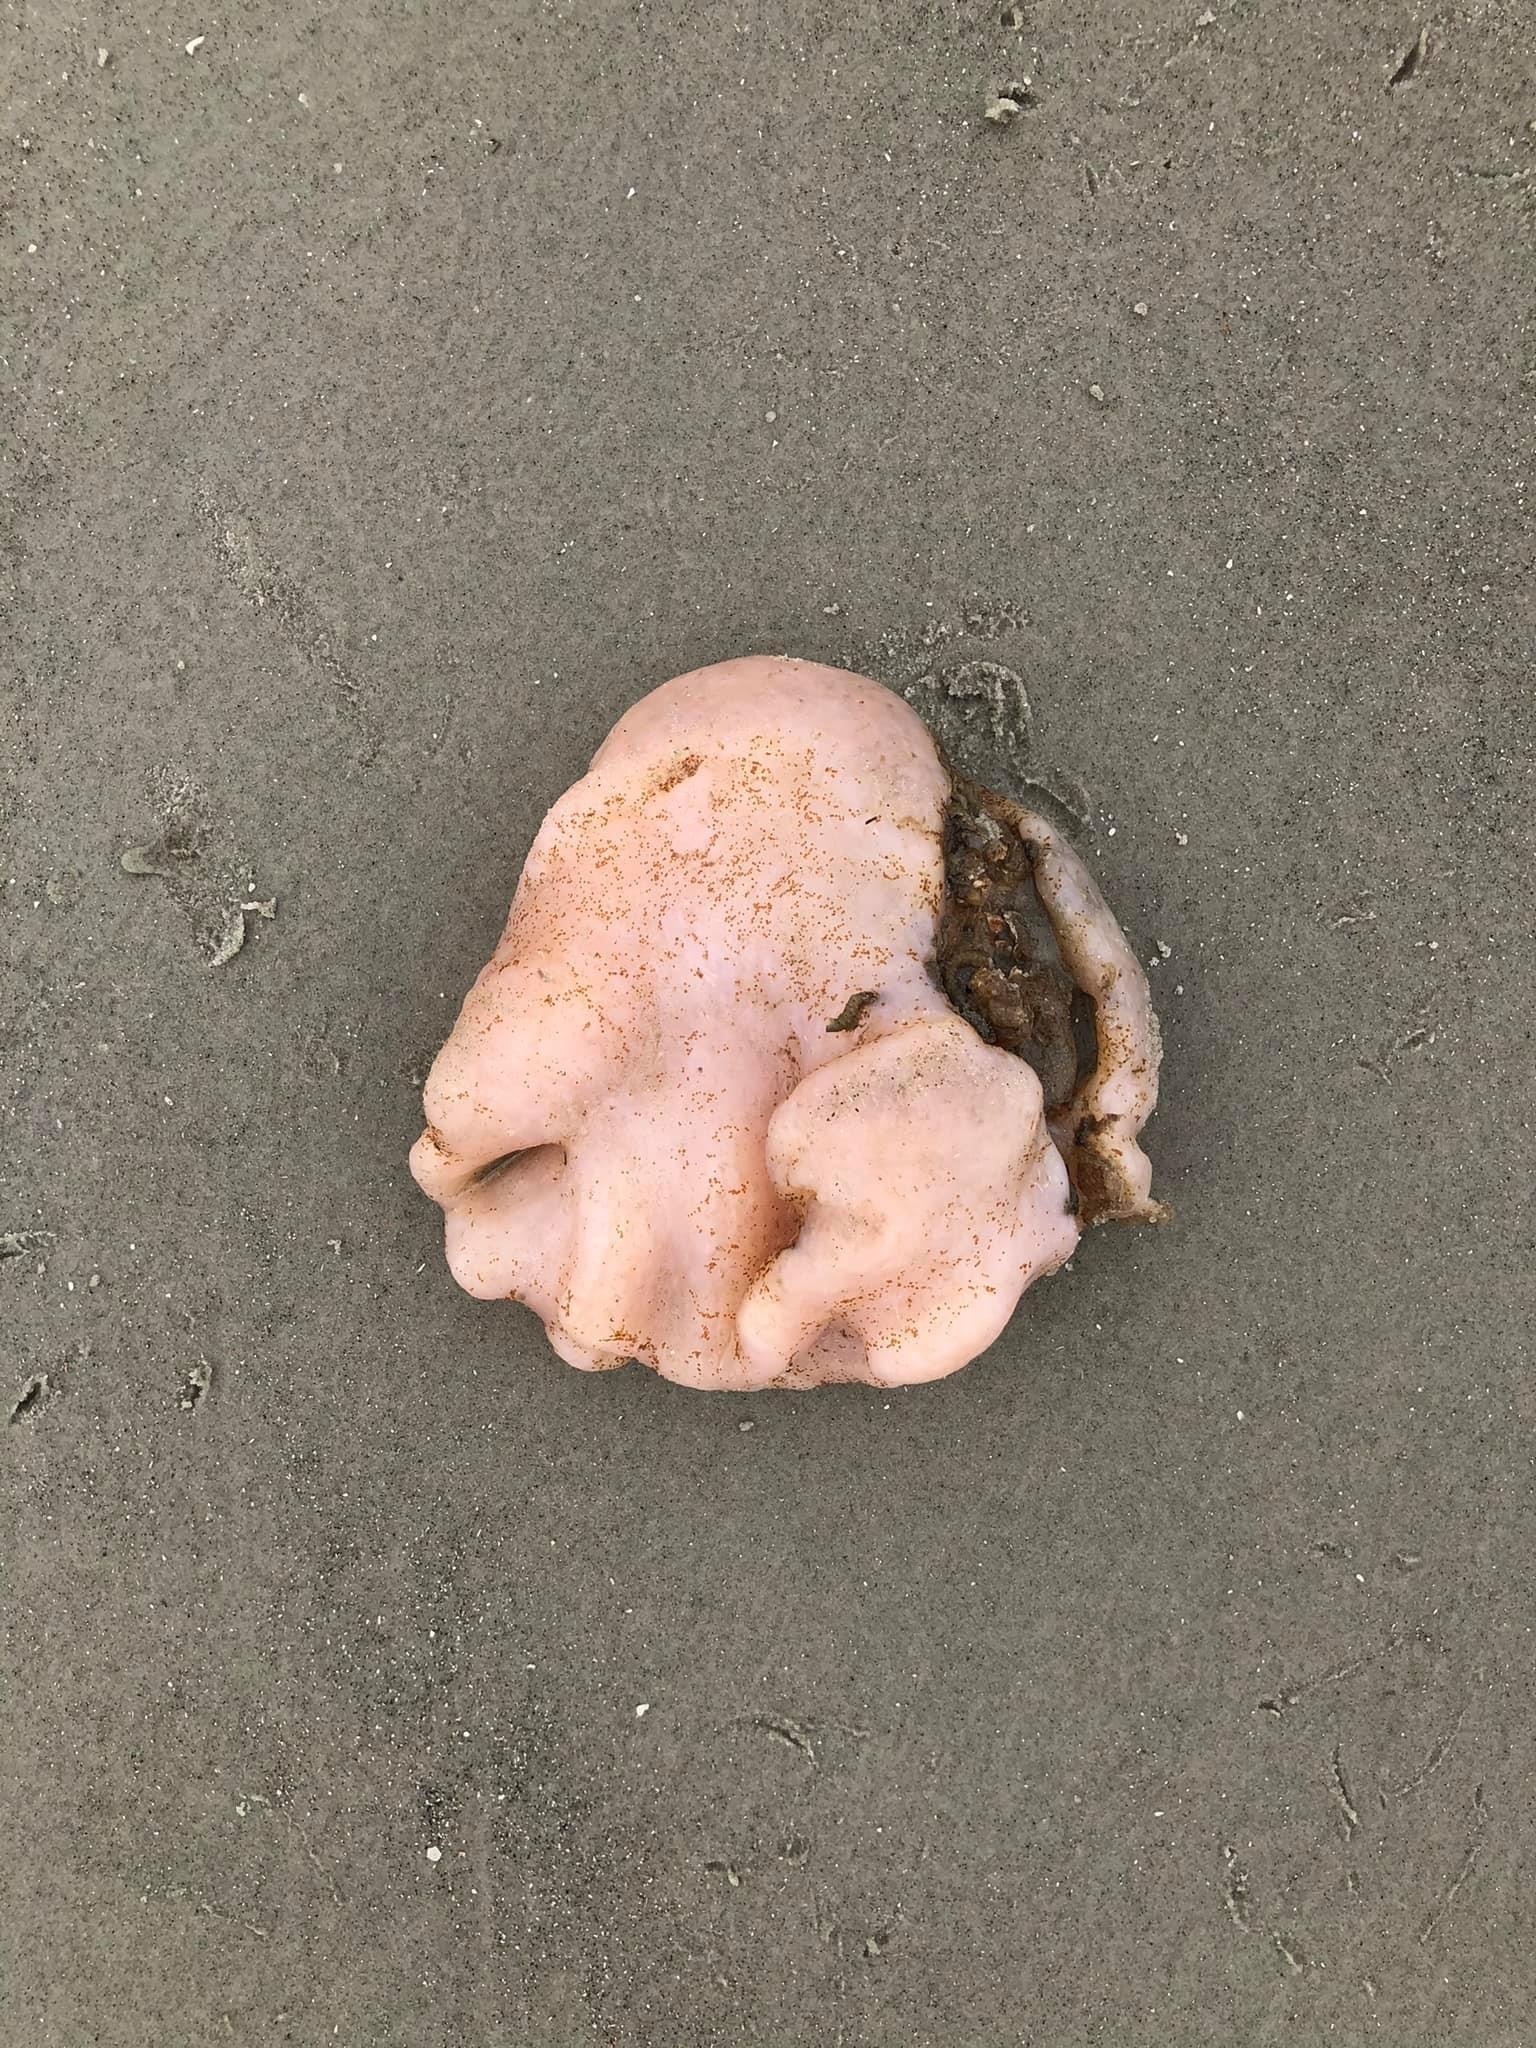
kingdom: Animalia
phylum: Chordata
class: Ascidiacea
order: Aplousobranchia
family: Polyclinidae
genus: Aplidium
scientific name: Aplidium stellatum
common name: Atlantic sea pork
